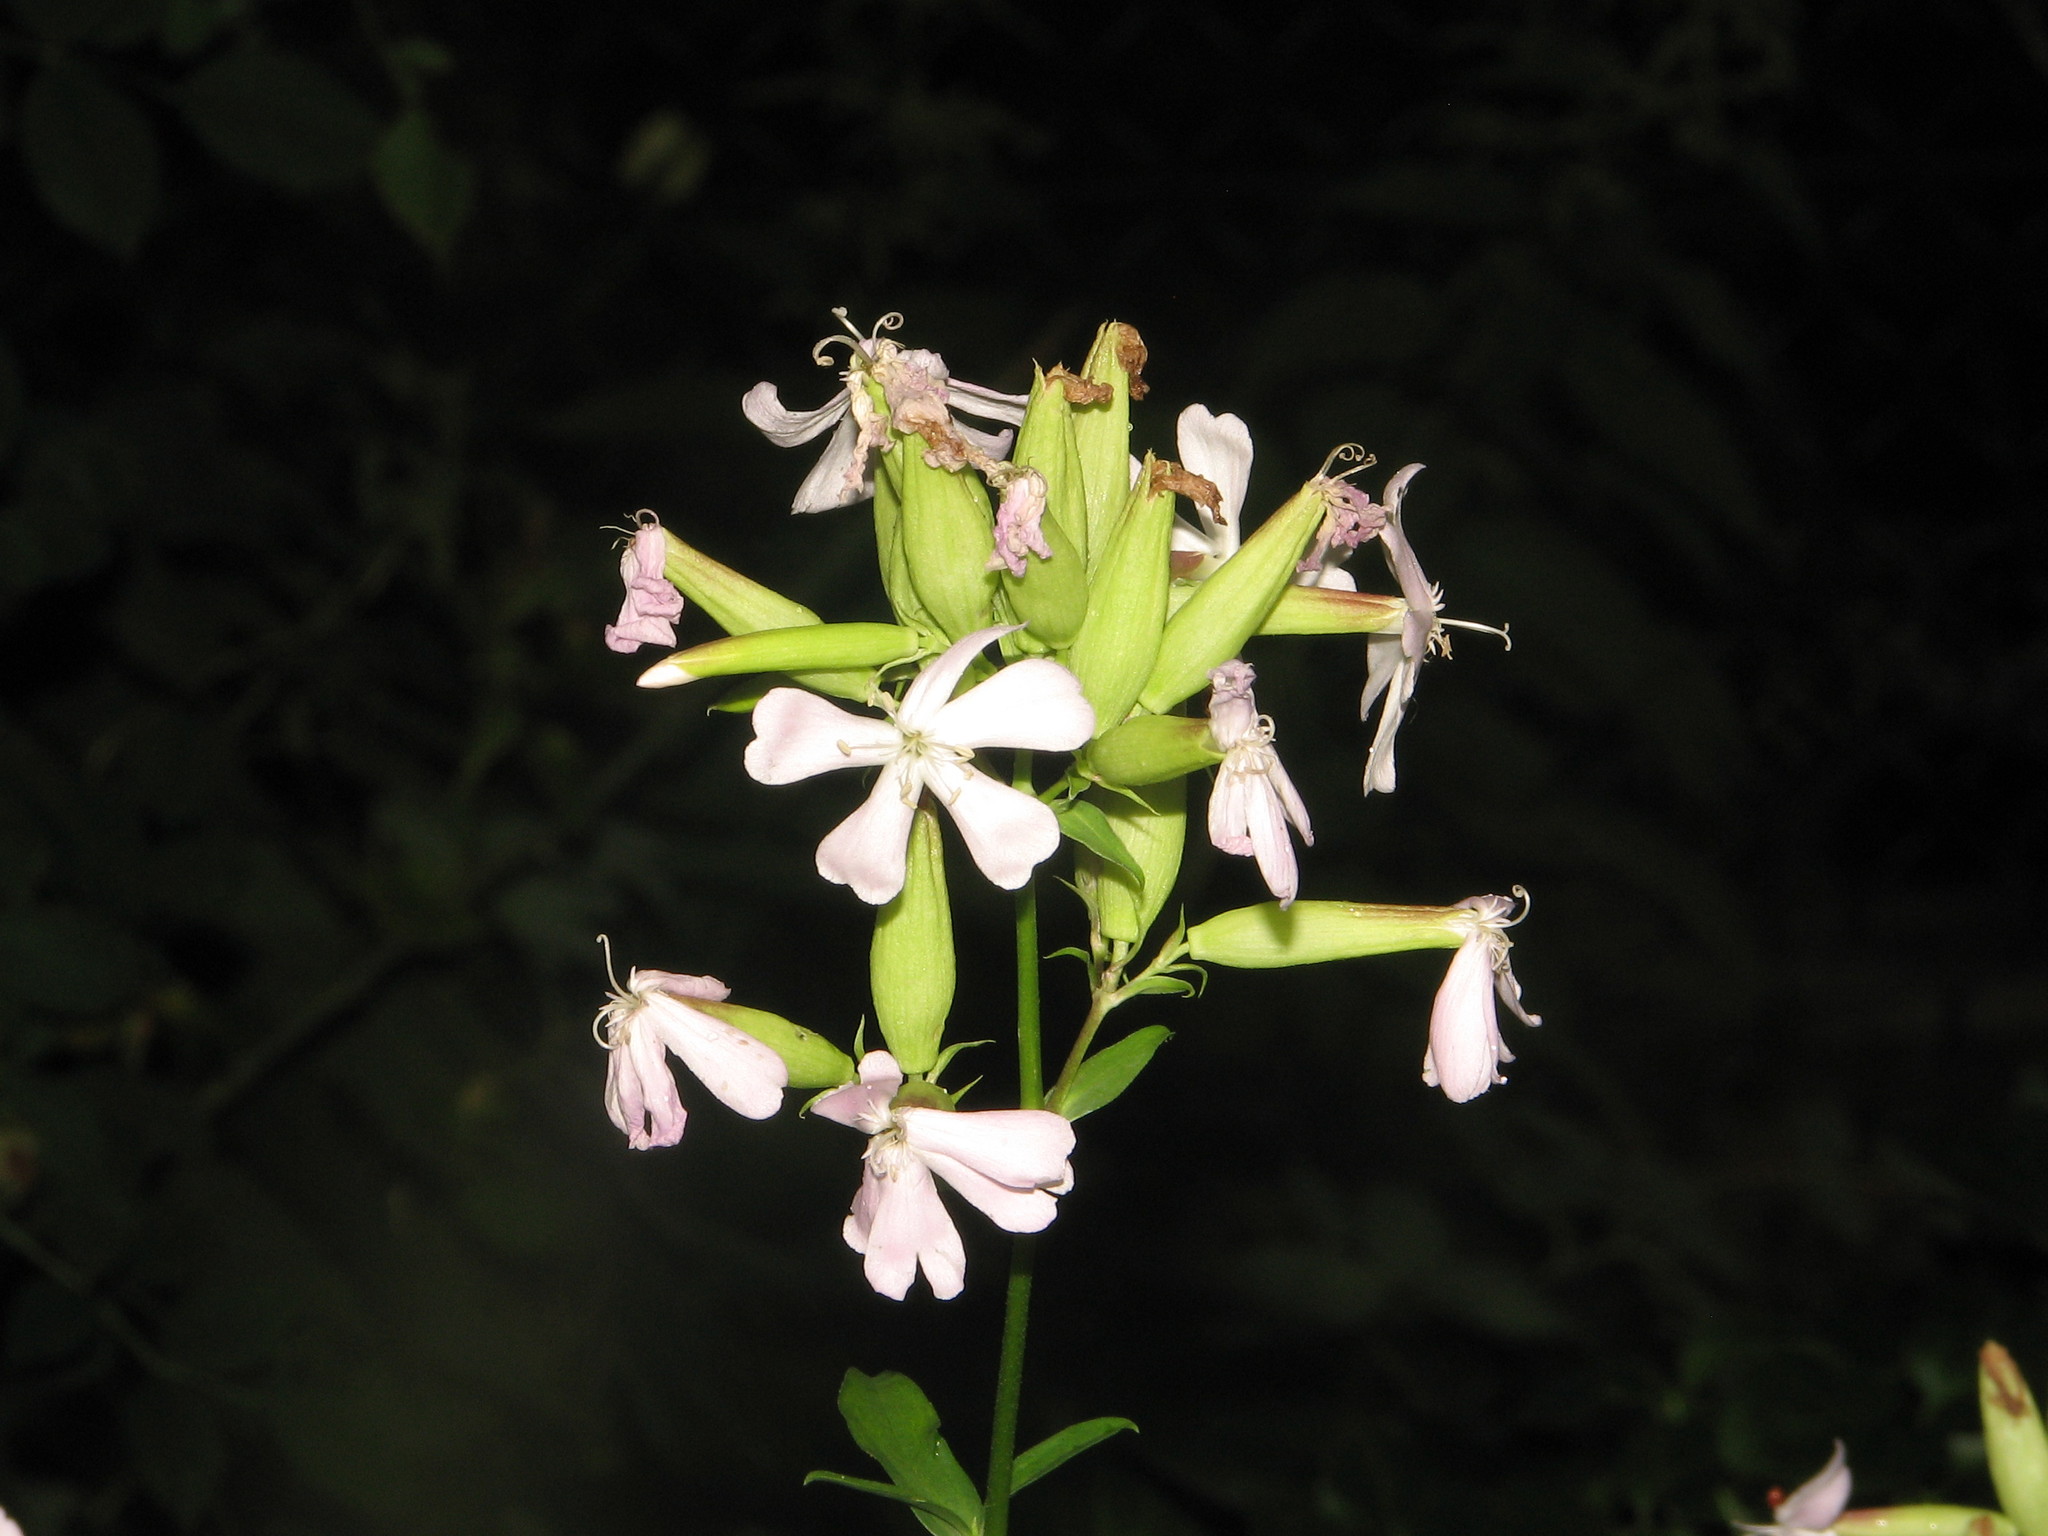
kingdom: Plantae
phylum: Tracheophyta
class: Magnoliopsida
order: Caryophyllales
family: Caryophyllaceae
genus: Saponaria
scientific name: Saponaria officinalis
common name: Soapwort
